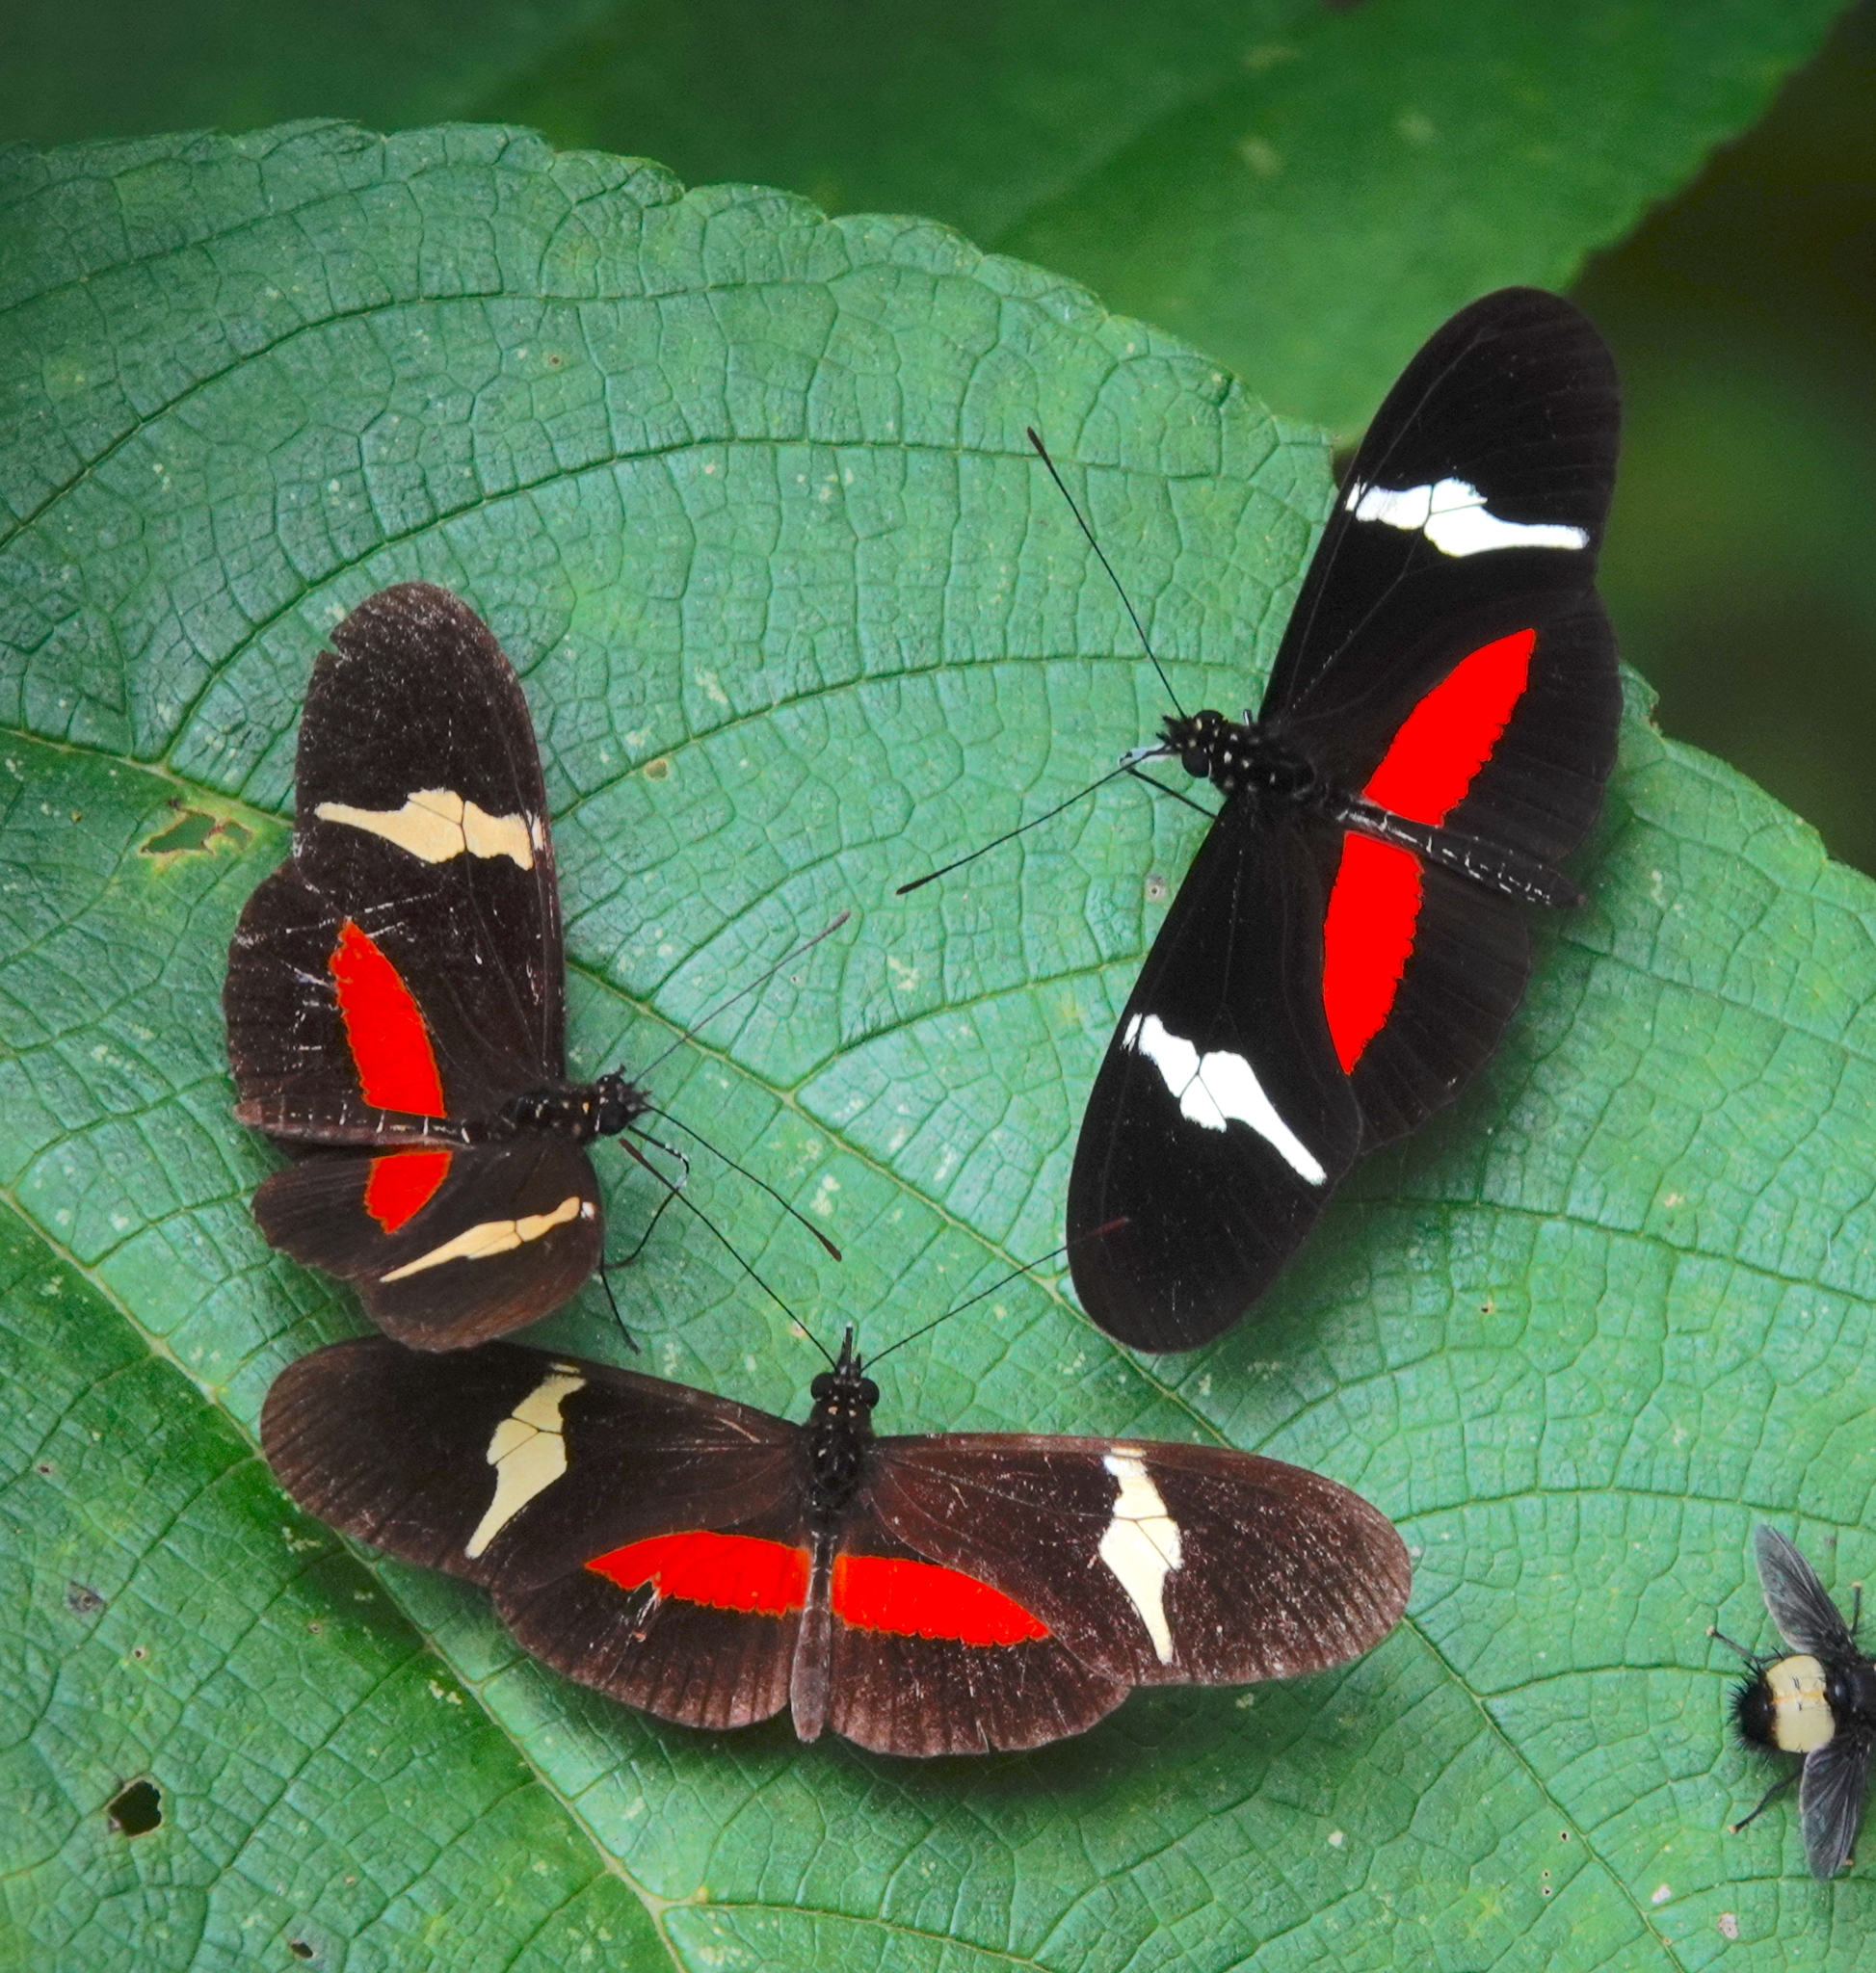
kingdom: Animalia
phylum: Arthropoda
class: Insecta
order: Lepidoptera
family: Nymphalidae
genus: Heliconius
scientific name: Heliconius clysonymus
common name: Clysonymus longwing
